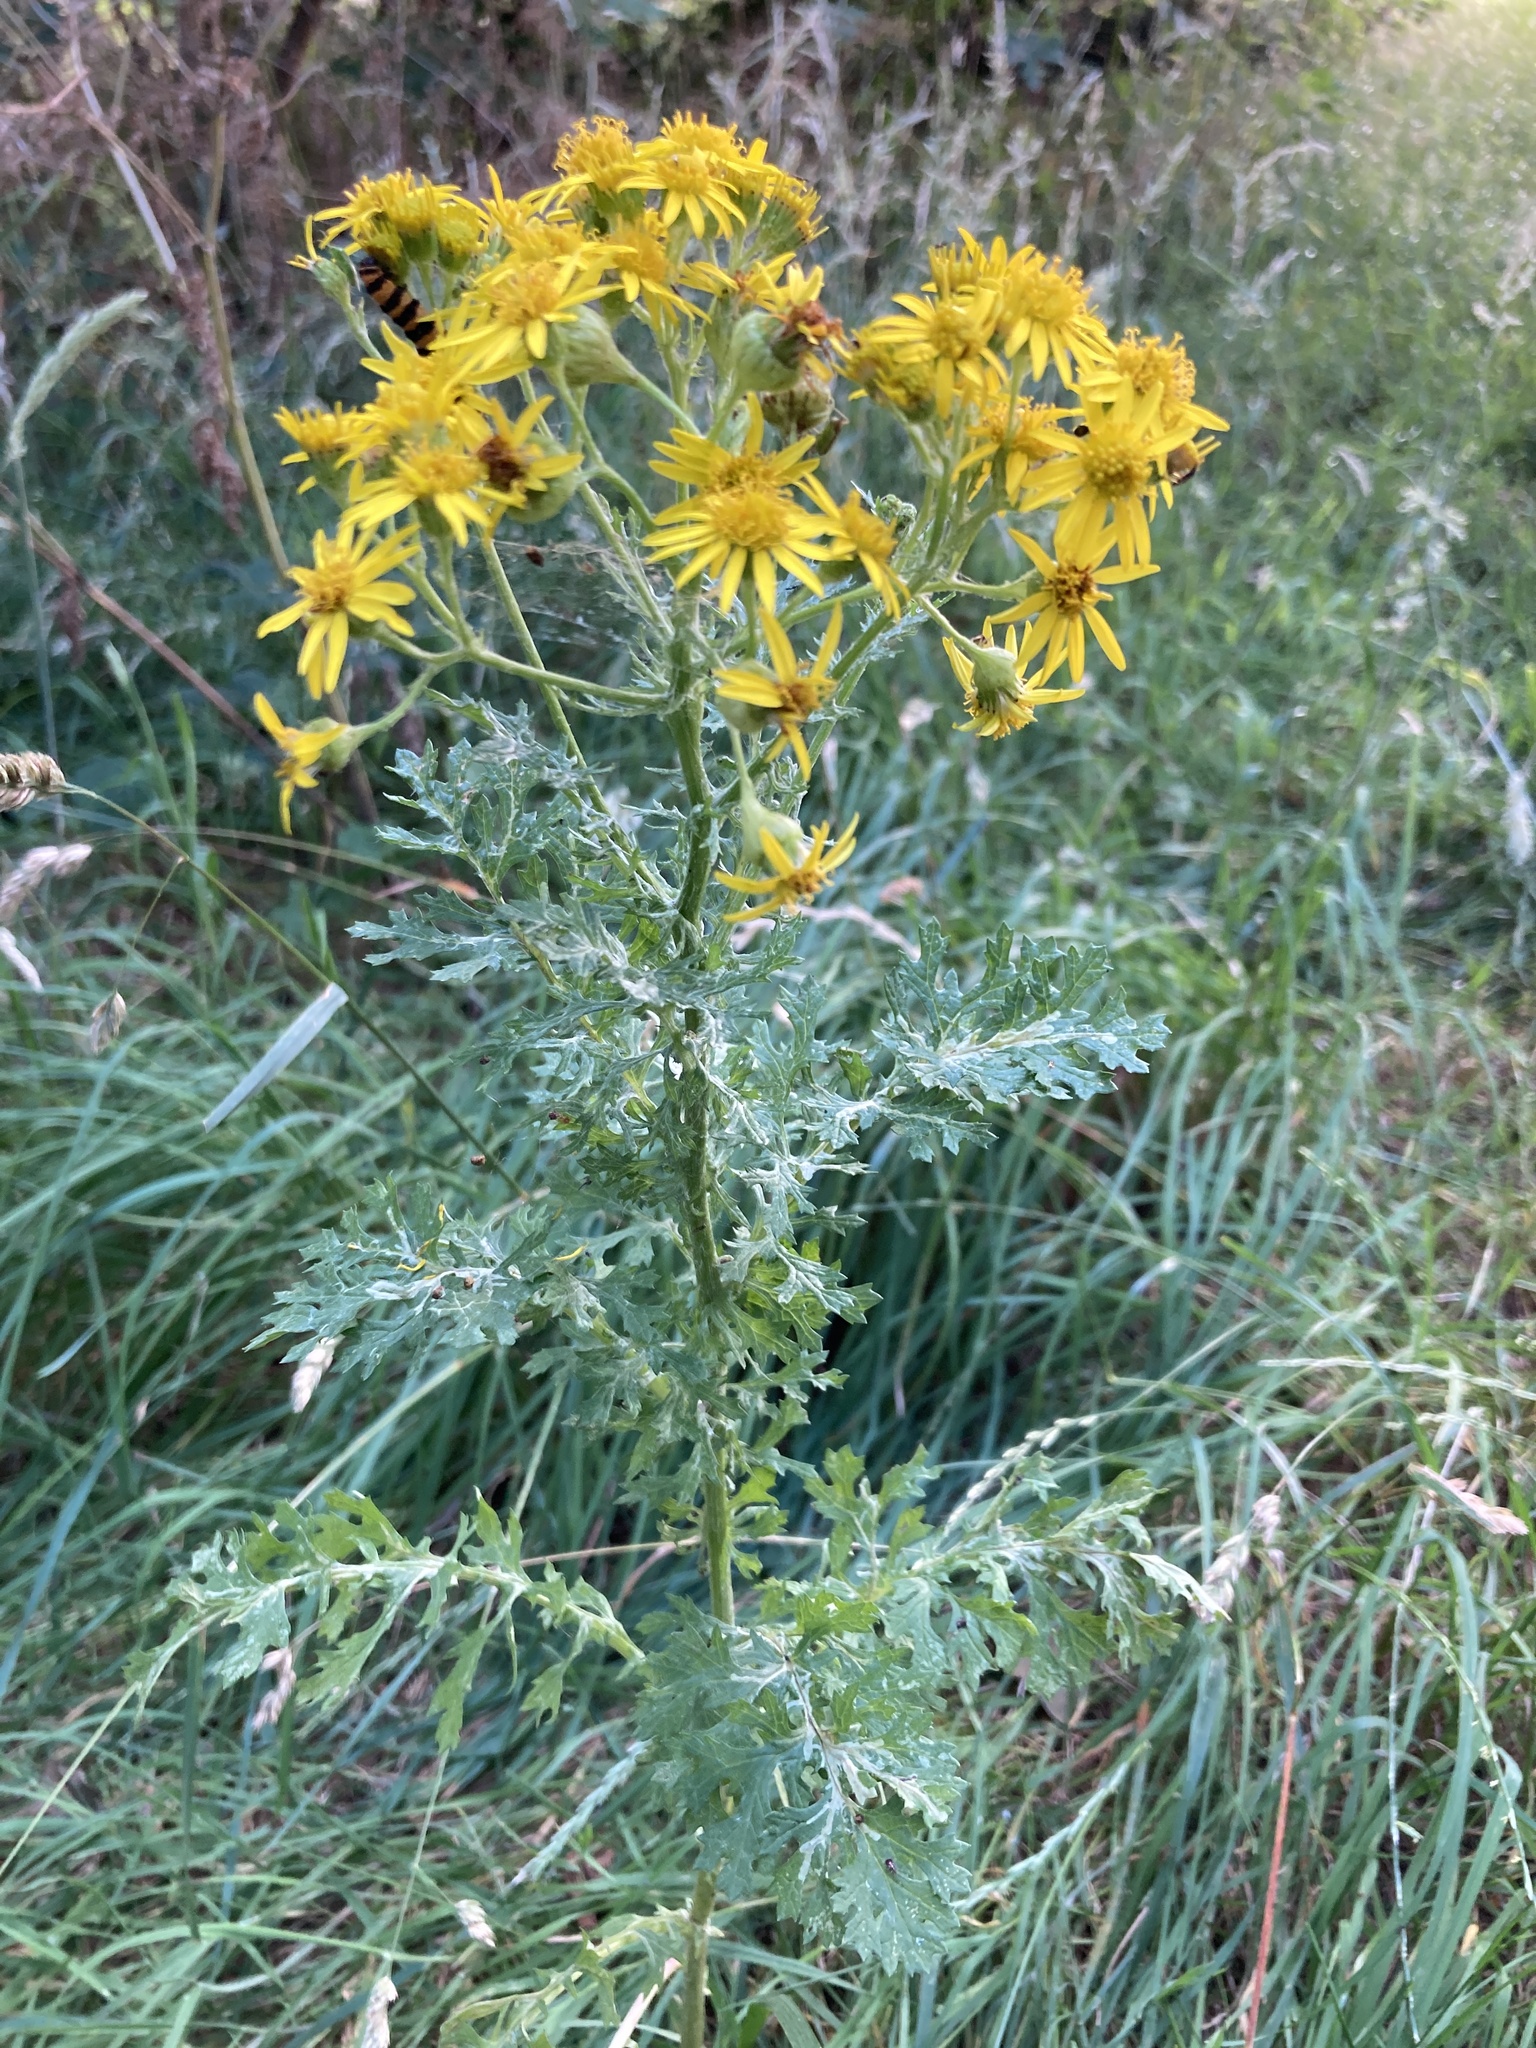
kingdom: Plantae
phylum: Tracheophyta
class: Magnoliopsida
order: Asterales
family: Asteraceae
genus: Jacobaea
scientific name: Jacobaea vulgaris
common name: Stinking willie
